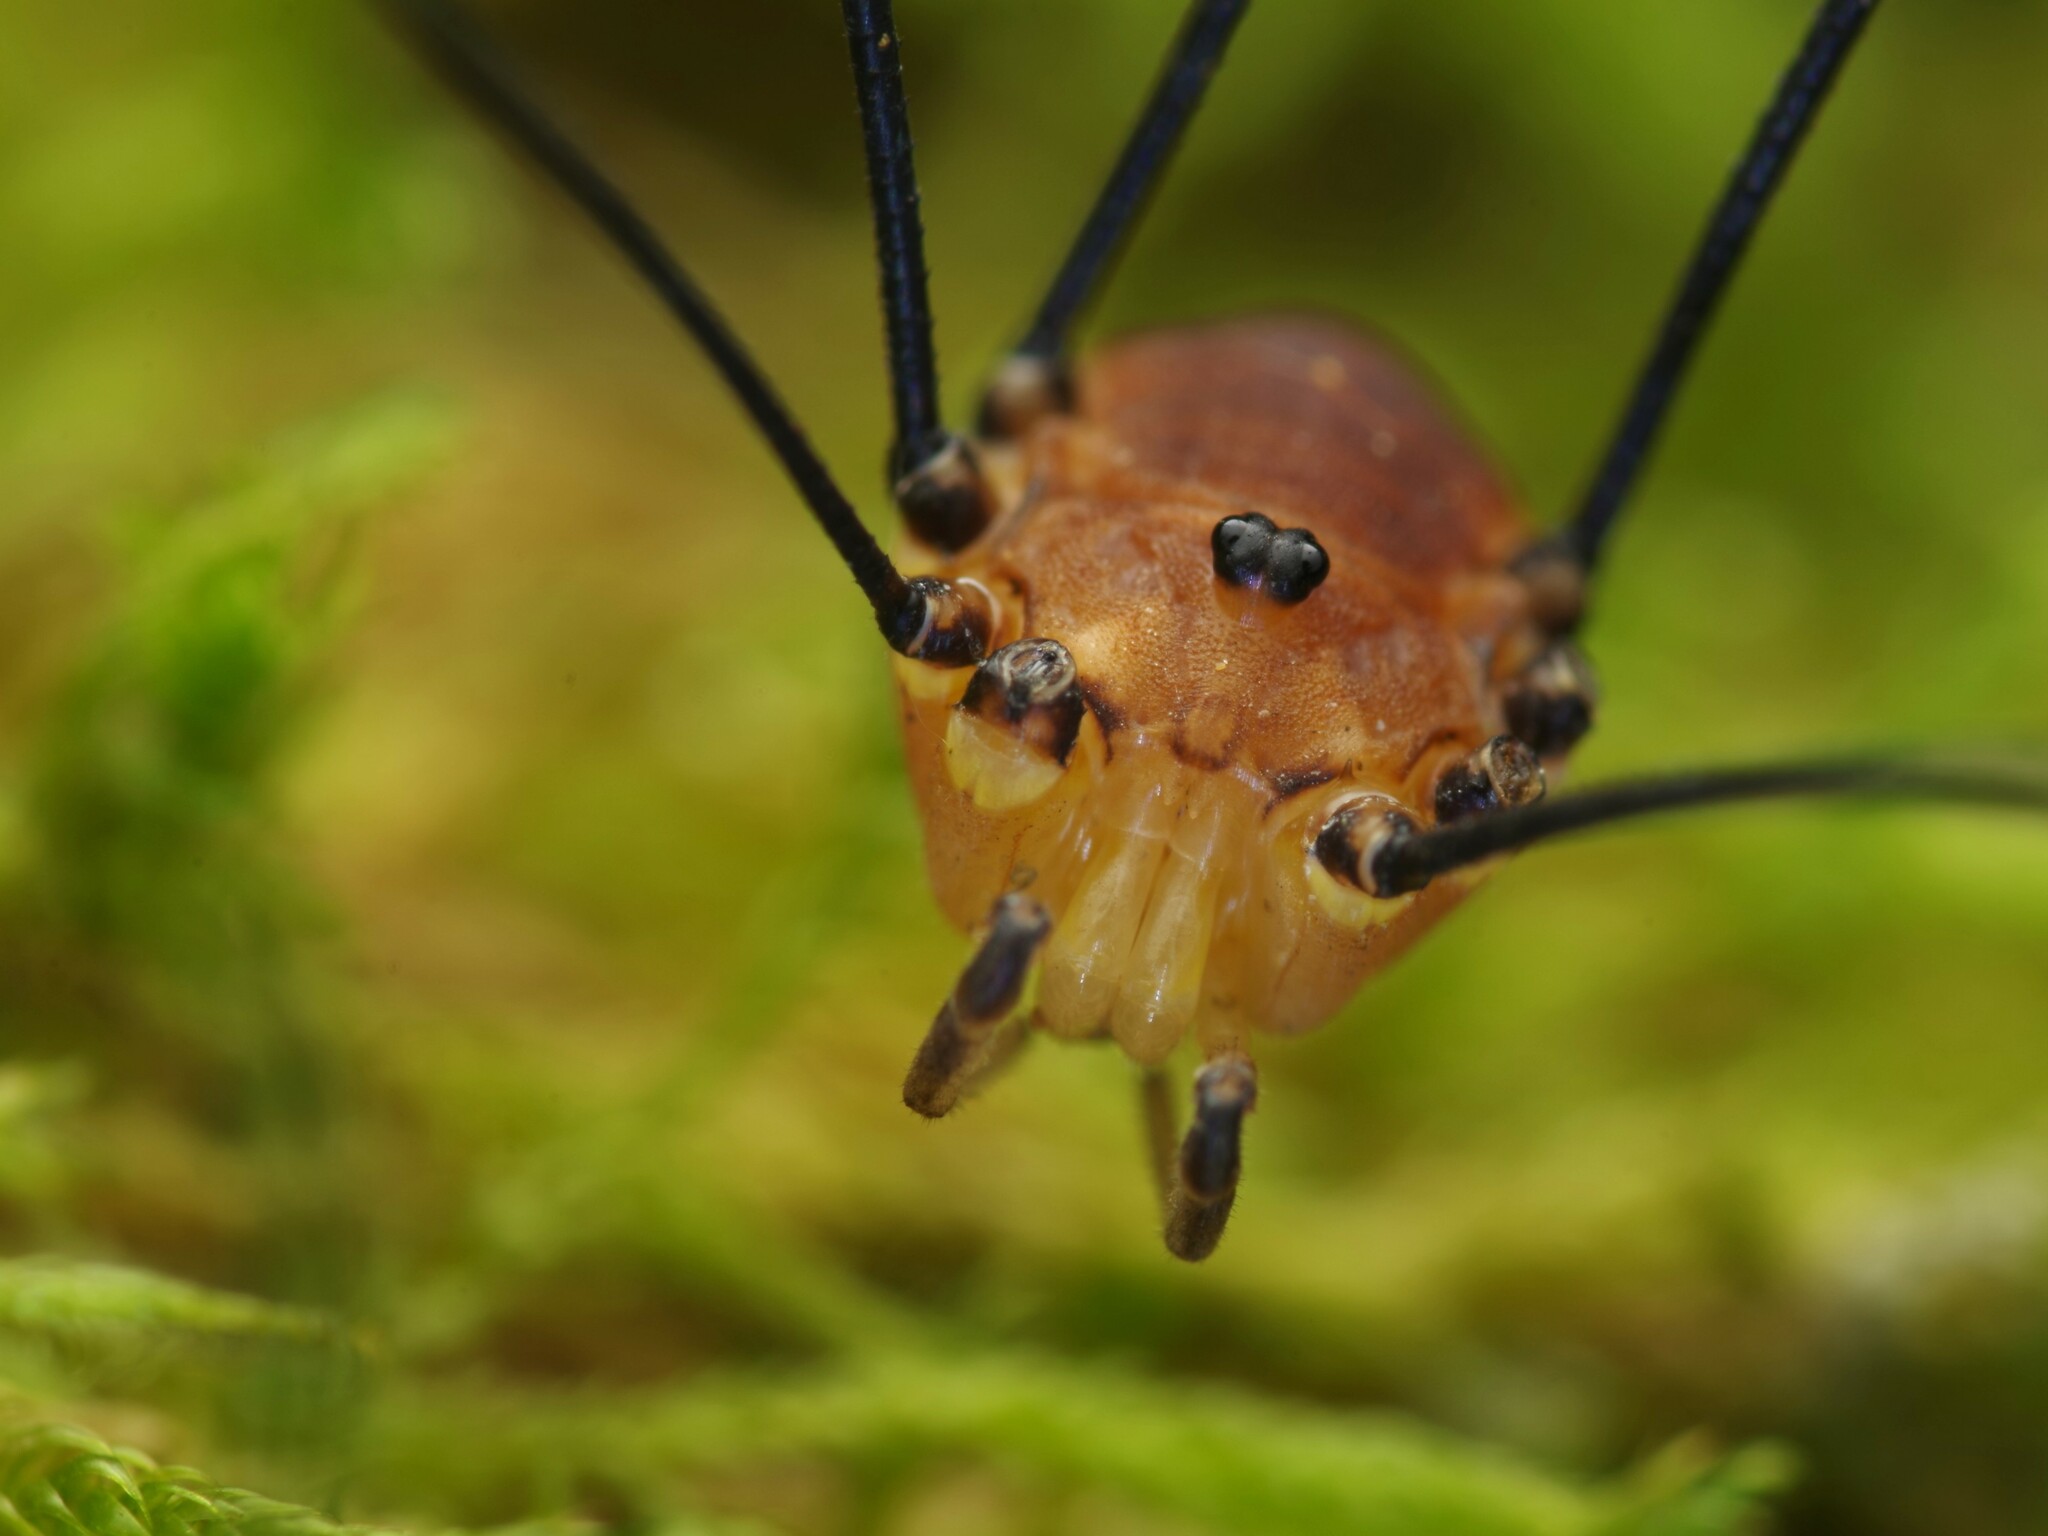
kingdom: Animalia
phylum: Arthropoda
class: Arachnida
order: Opiliones
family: Sclerosomatidae
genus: Leiobunum
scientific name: Leiobunum rotundum
